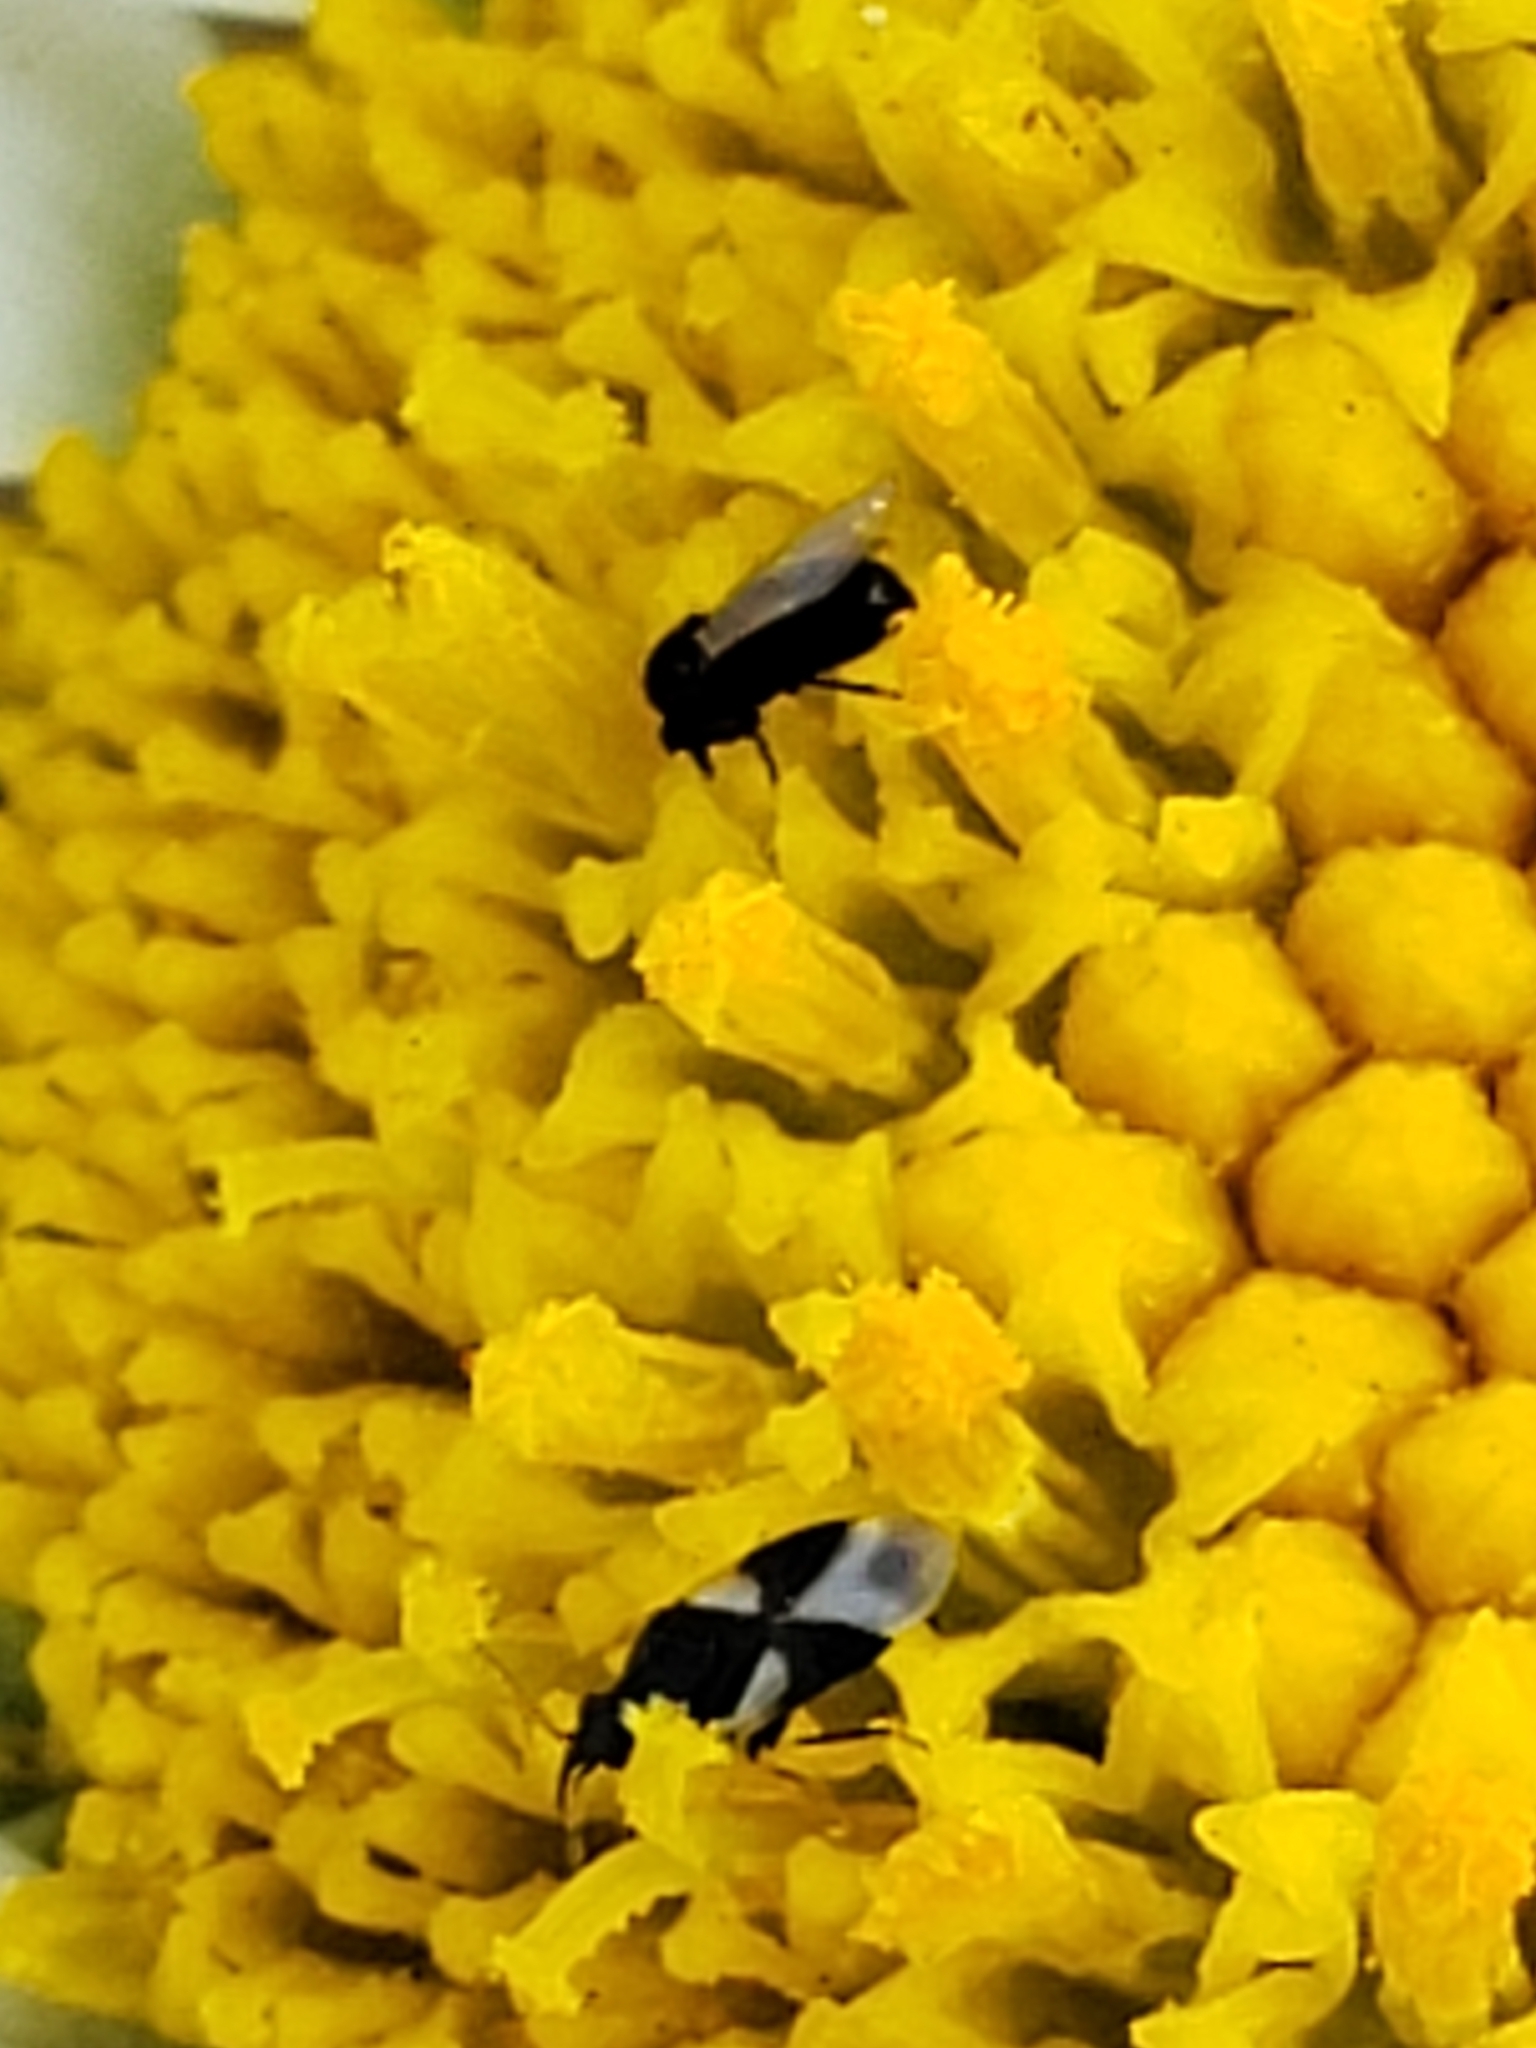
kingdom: Animalia
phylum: Arthropoda
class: Insecta
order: Hemiptera
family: Anthocoridae
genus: Orius
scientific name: Orius tristicolor
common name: Minute pirate bug
